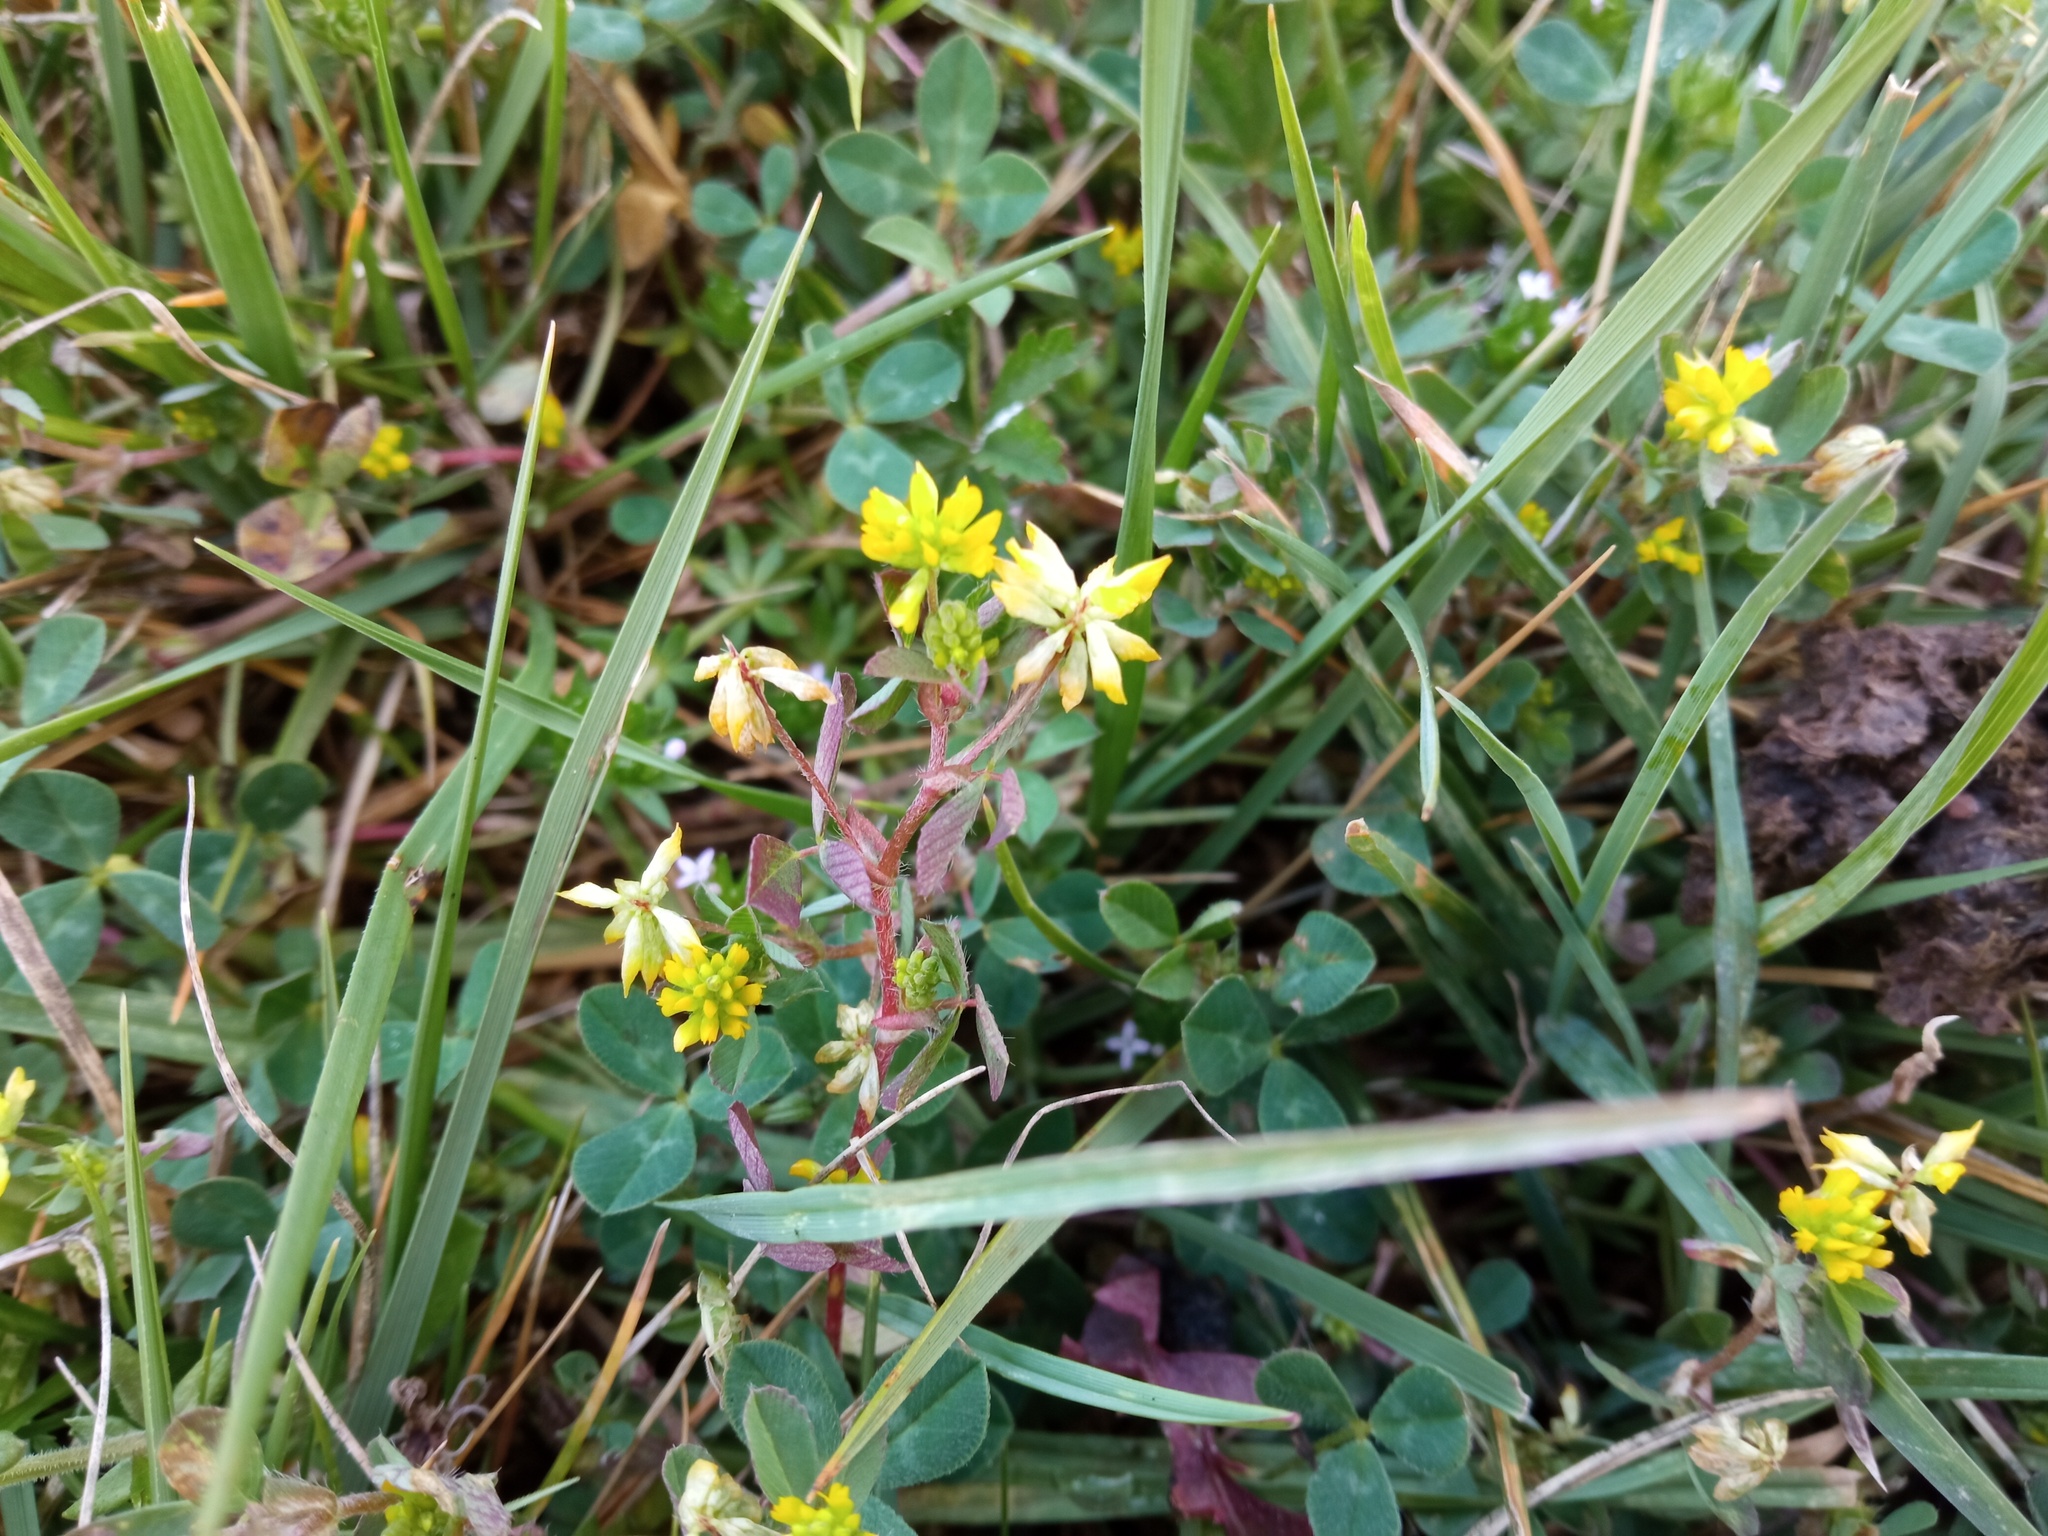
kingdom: Plantae
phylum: Tracheophyta
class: Magnoliopsida
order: Fabales
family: Fabaceae
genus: Trifolium
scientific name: Trifolium dubium
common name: Suckling clover
